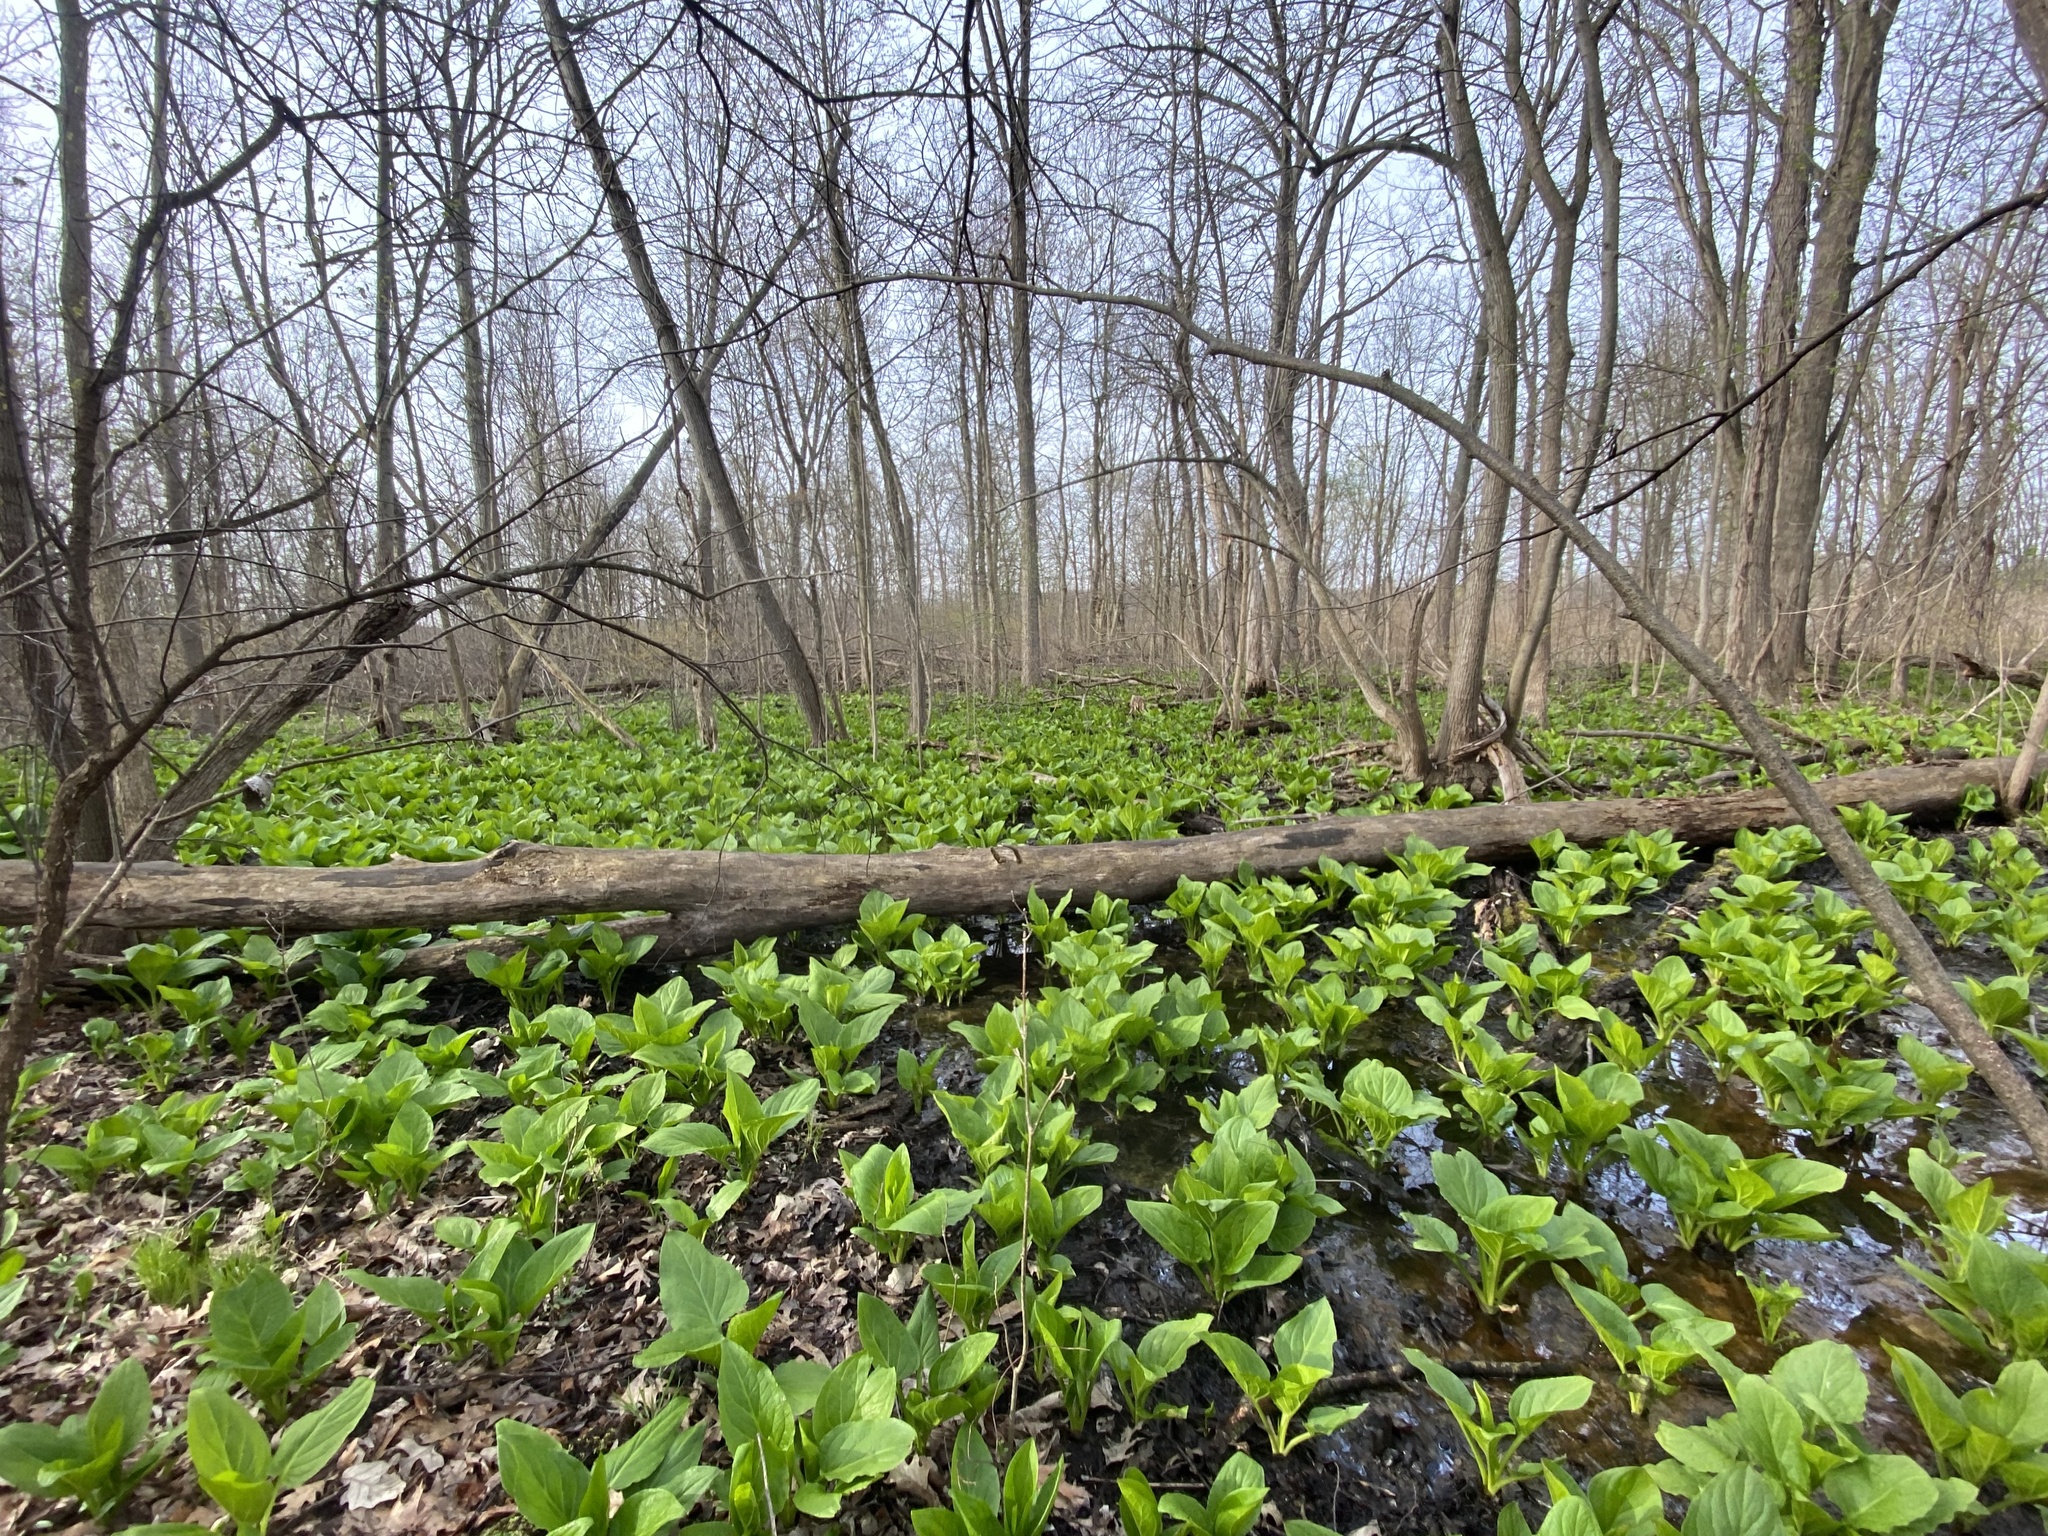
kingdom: Plantae
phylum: Tracheophyta
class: Liliopsida
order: Alismatales
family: Araceae
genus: Symplocarpus
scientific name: Symplocarpus foetidus
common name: Eastern skunk cabbage
